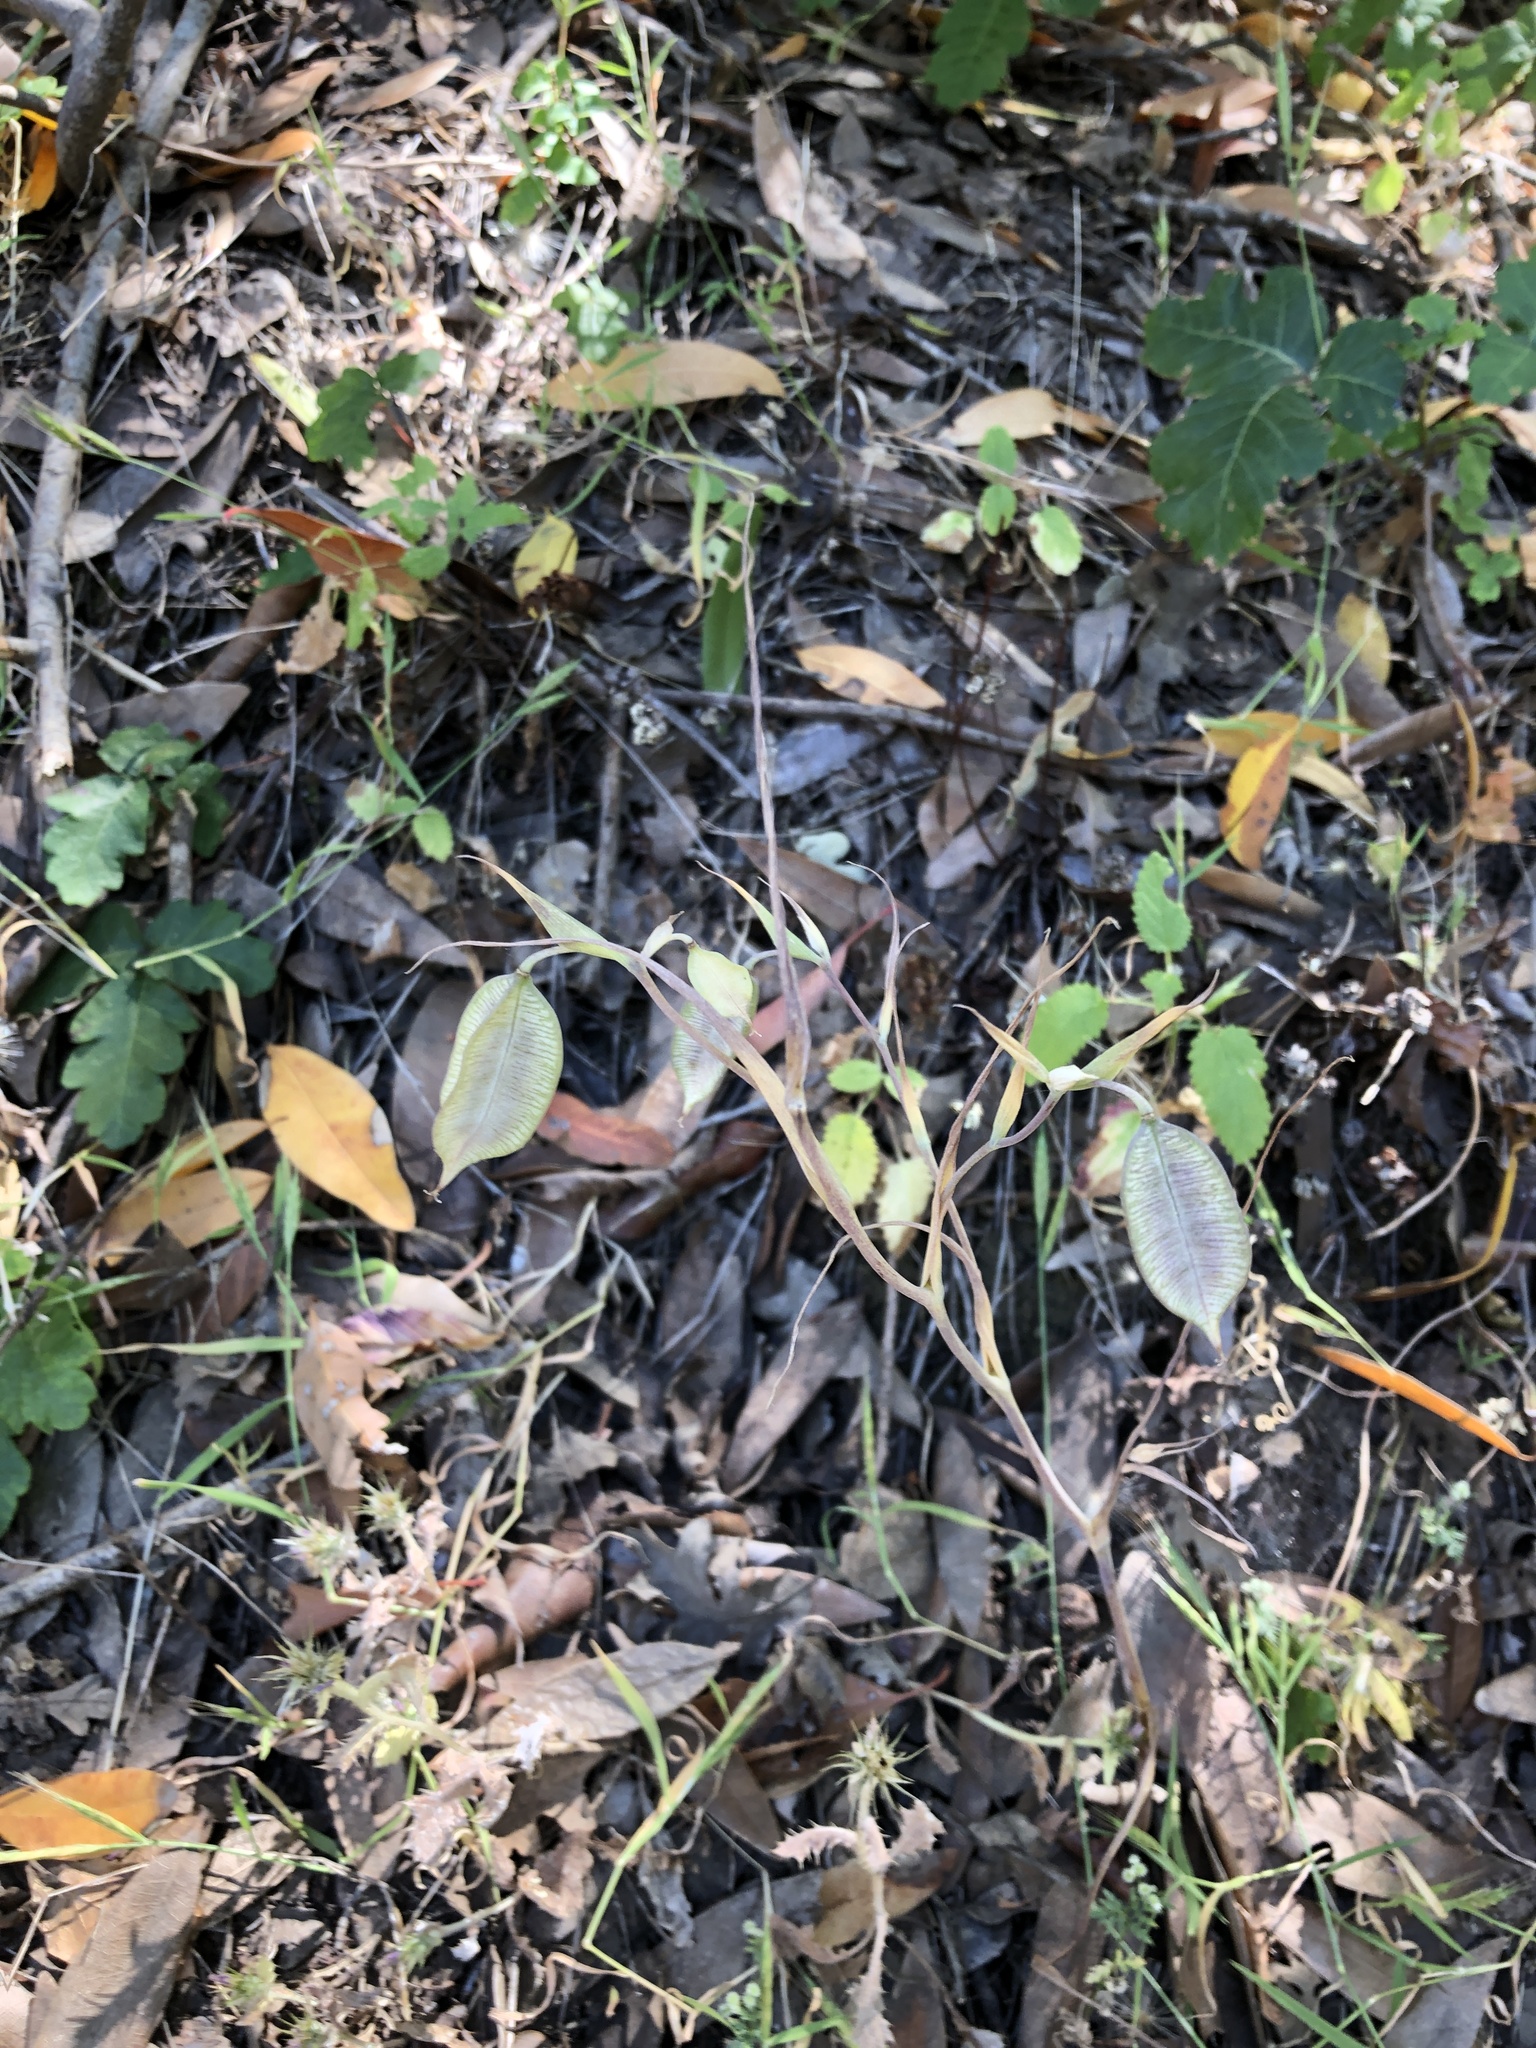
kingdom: Plantae
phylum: Tracheophyta
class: Liliopsida
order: Liliales
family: Liliaceae
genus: Calochortus
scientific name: Calochortus albus
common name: Fairy-lantern
